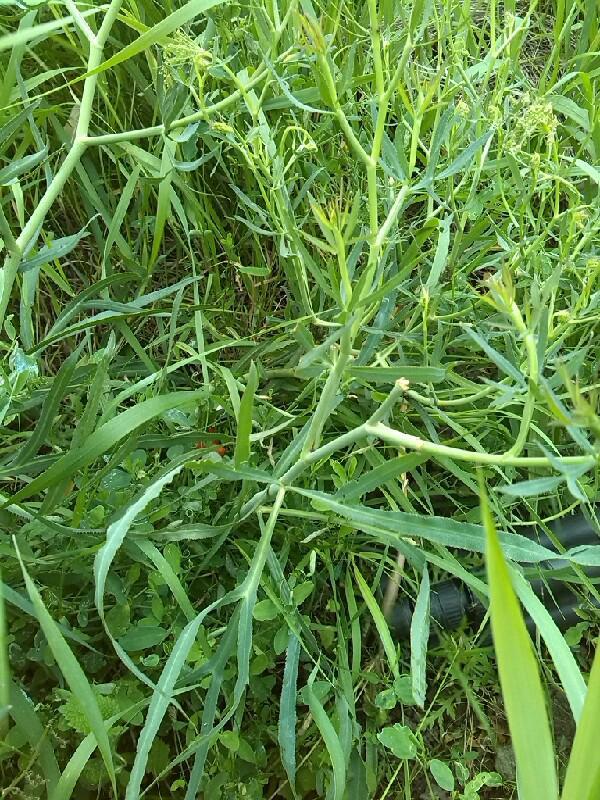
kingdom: Plantae
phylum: Tracheophyta
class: Magnoliopsida
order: Apiales
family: Apiaceae
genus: Falcaria
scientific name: Falcaria vulgaris
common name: Longleaf
